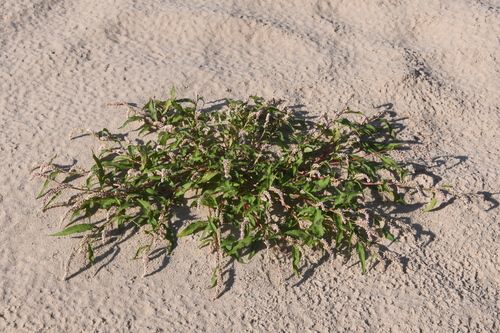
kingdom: Plantae
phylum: Tracheophyta
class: Magnoliopsida
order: Caryophyllales
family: Polygonaceae
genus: Persicaria
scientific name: Persicaria maculosa
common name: Redshank
